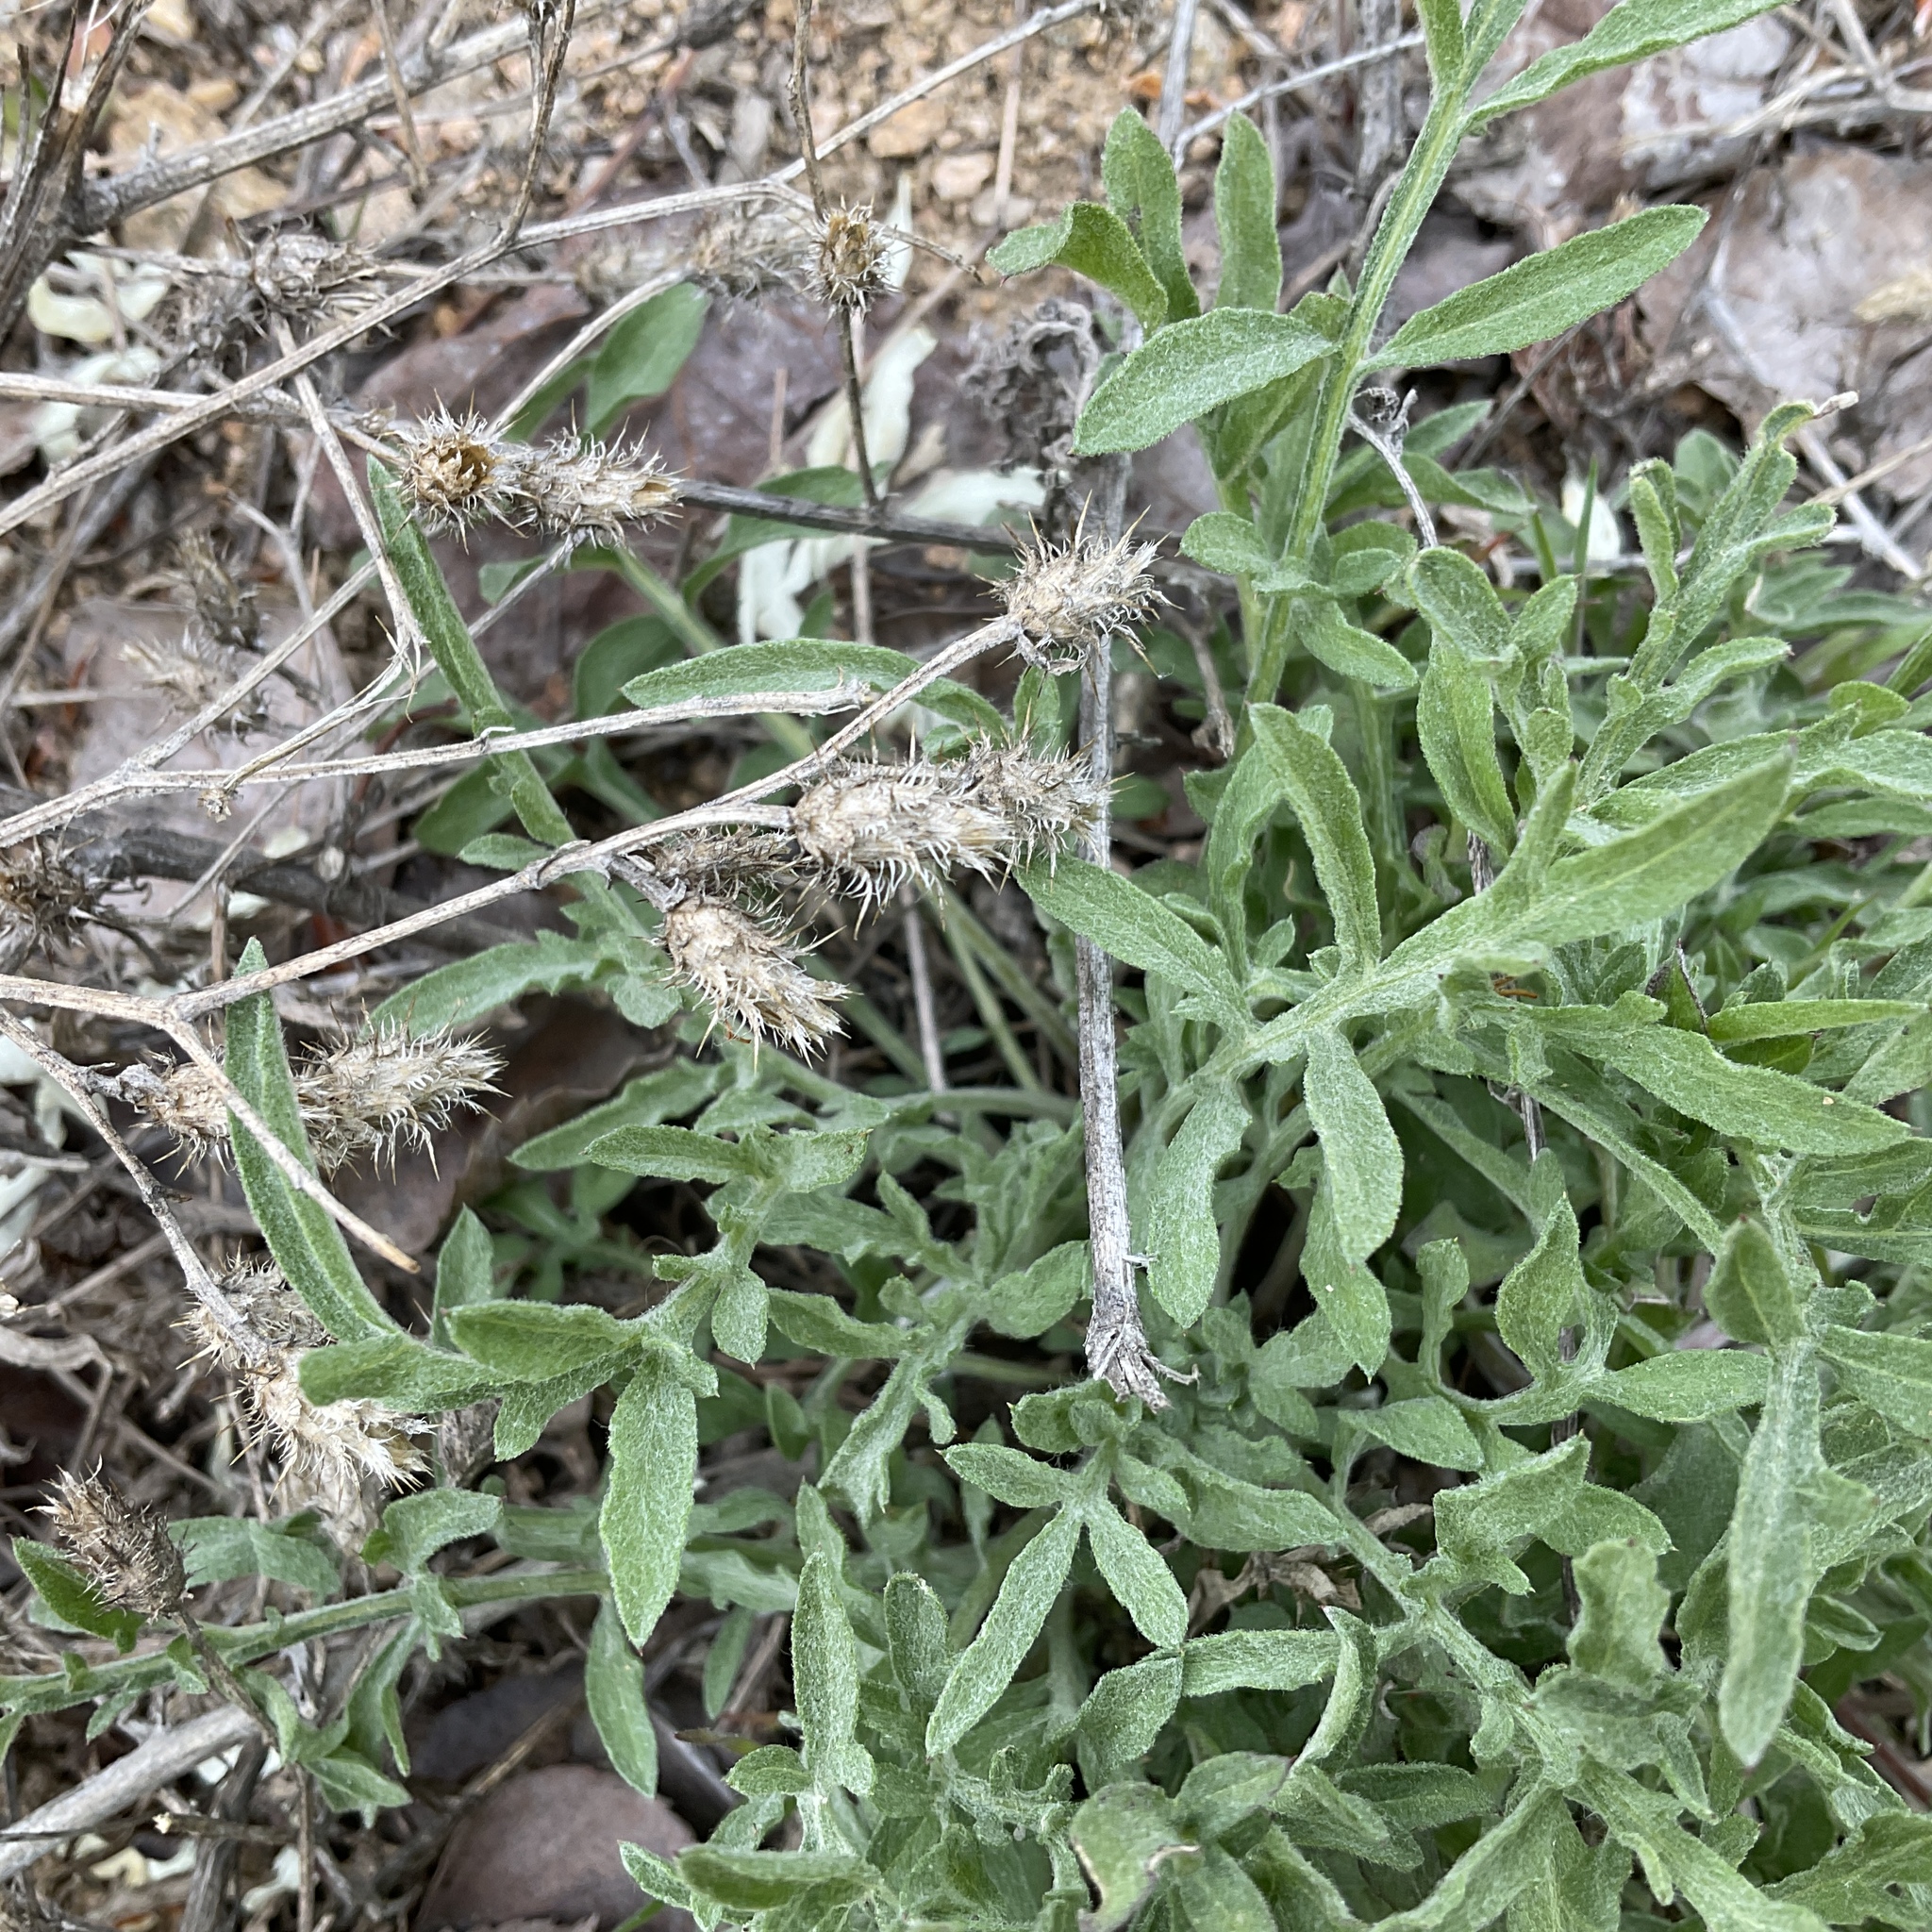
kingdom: Plantae
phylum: Tracheophyta
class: Magnoliopsida
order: Asterales
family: Asteraceae
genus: Centaurea
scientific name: Centaurea diffusa
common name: Diffuse knapweed
